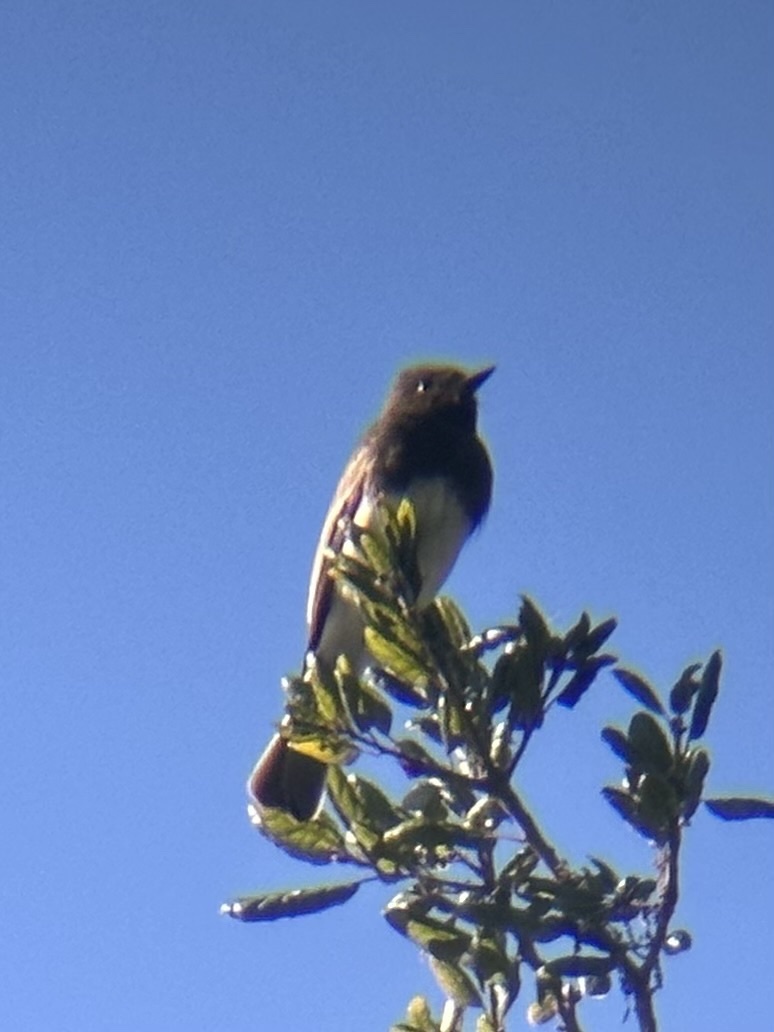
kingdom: Animalia
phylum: Chordata
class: Aves
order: Passeriformes
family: Tyrannidae
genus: Sayornis
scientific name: Sayornis nigricans
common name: Black phoebe
